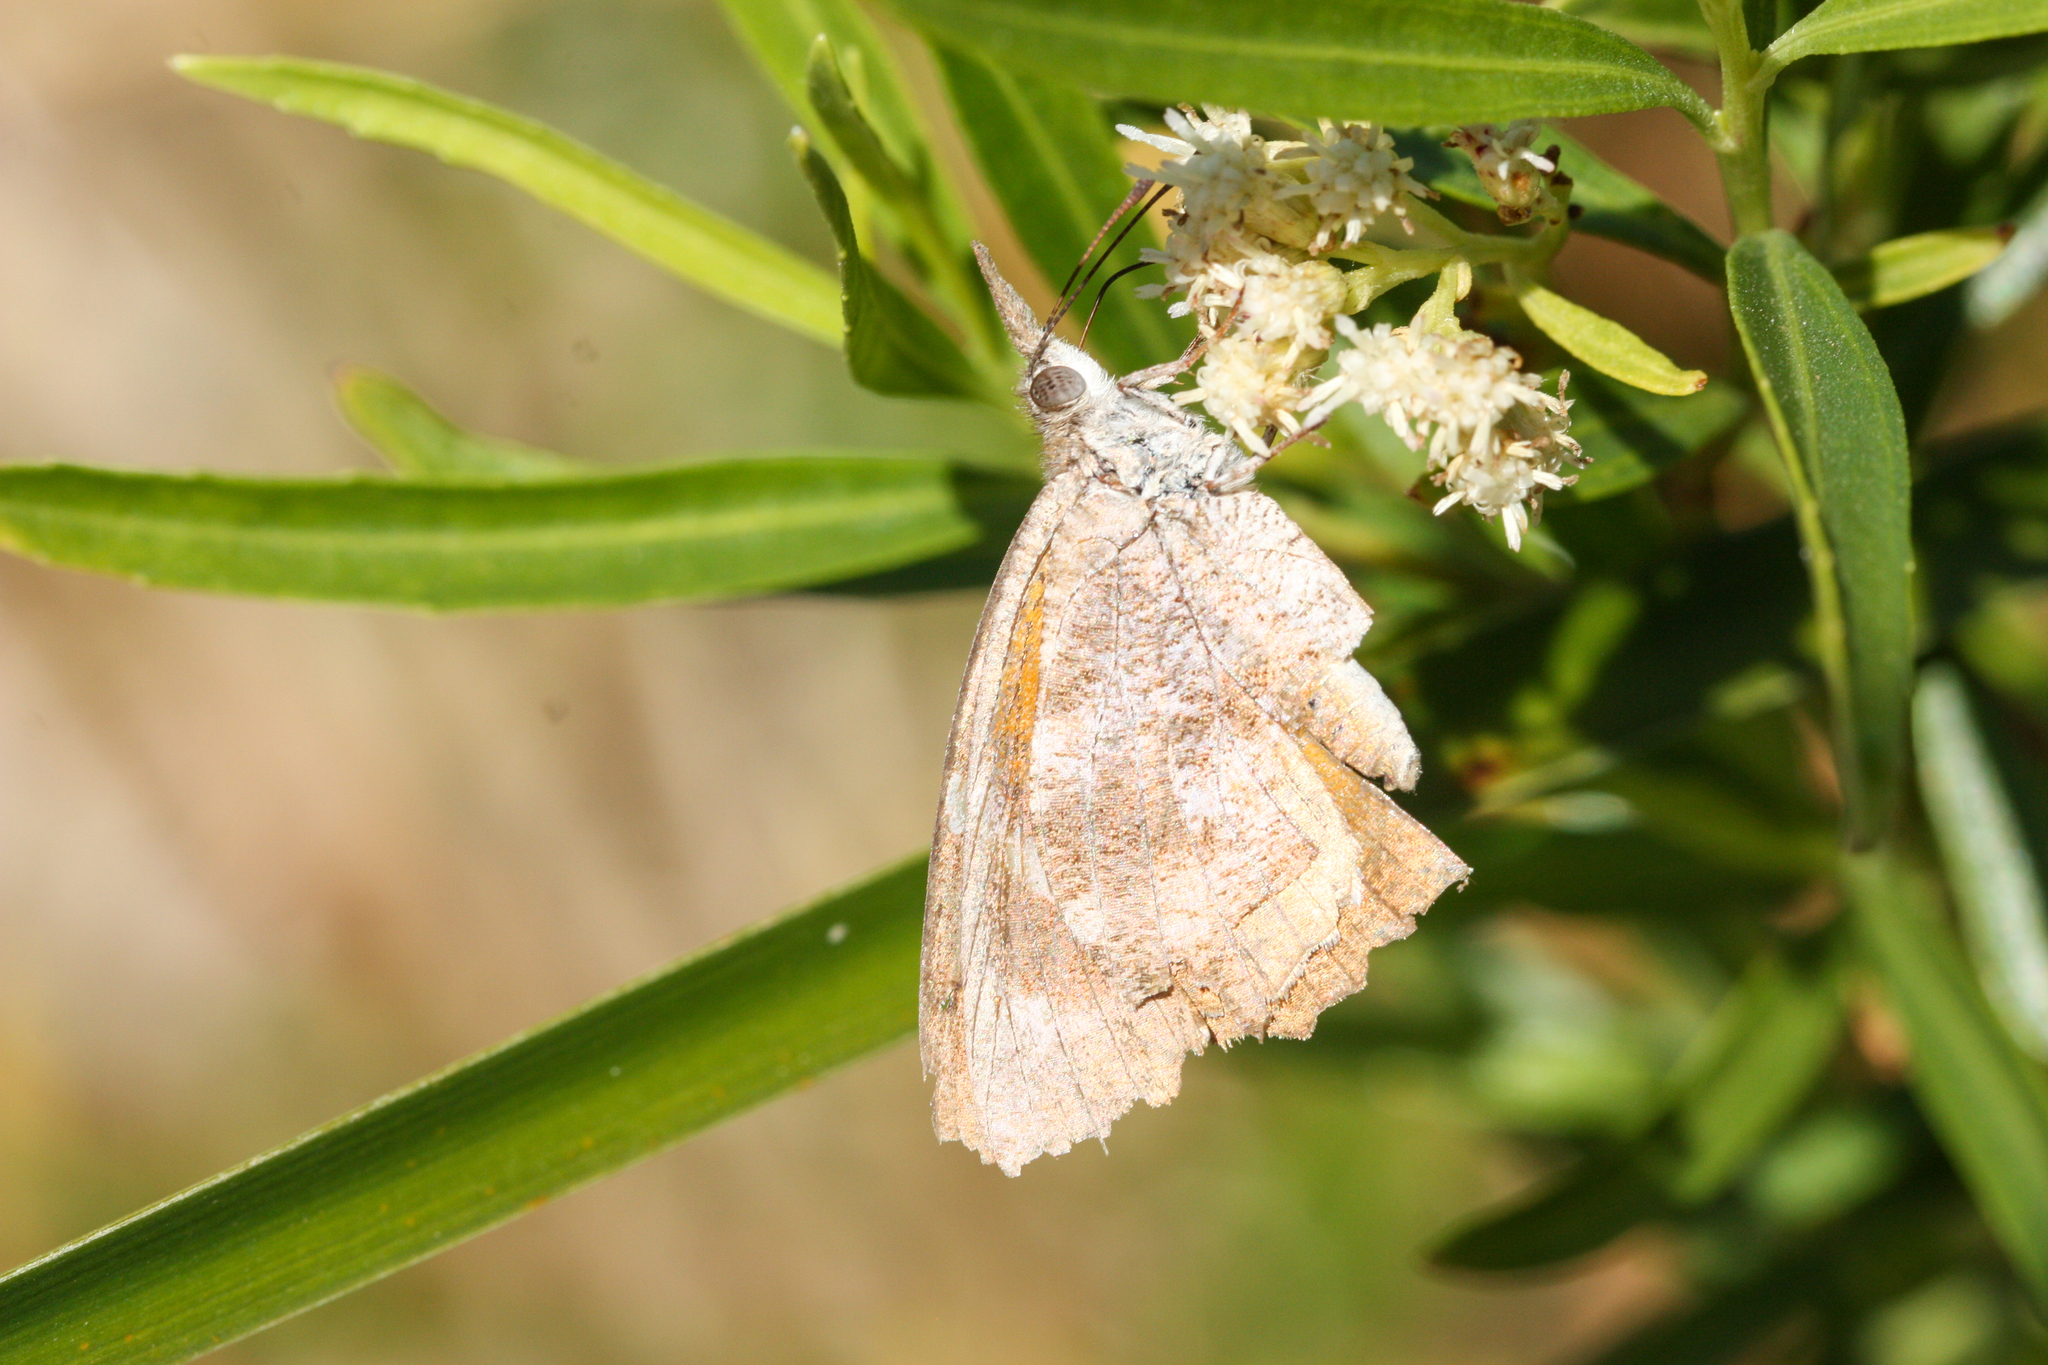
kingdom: Animalia
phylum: Arthropoda
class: Insecta
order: Lepidoptera
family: Nymphalidae
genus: Libytheana
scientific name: Libytheana carinenta
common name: American snout
